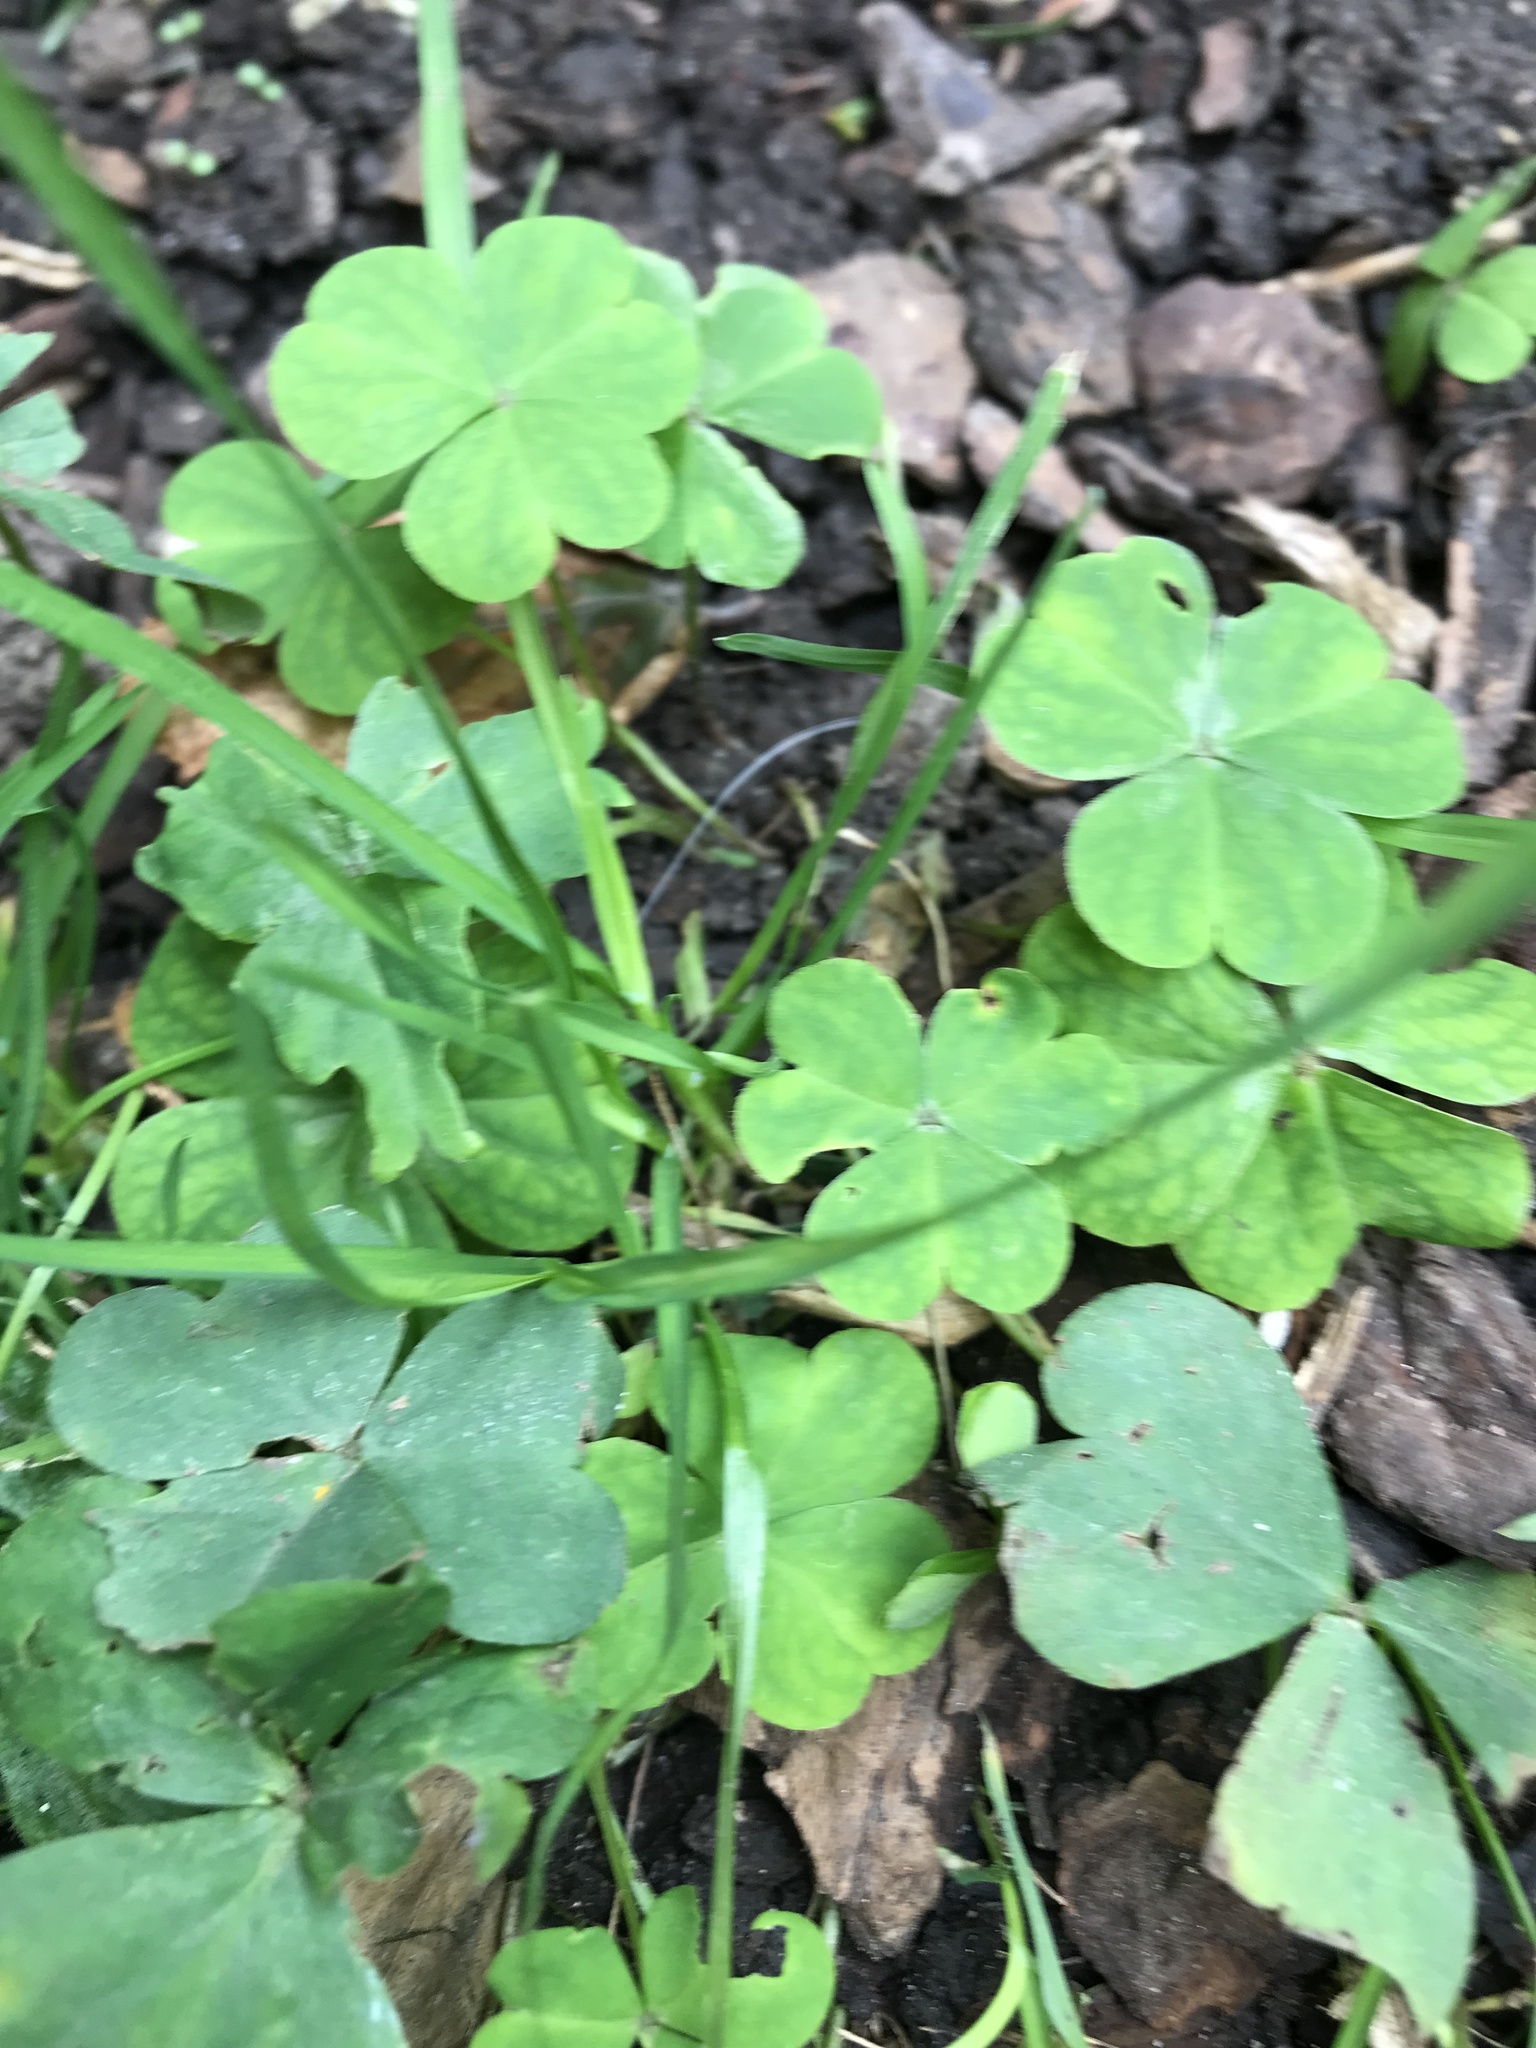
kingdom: Plantae
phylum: Tracheophyta
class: Magnoliopsida
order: Oxalidales
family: Oxalidaceae
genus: Oxalis
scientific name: Oxalis corniculata
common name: Procumbent yellow-sorrel
